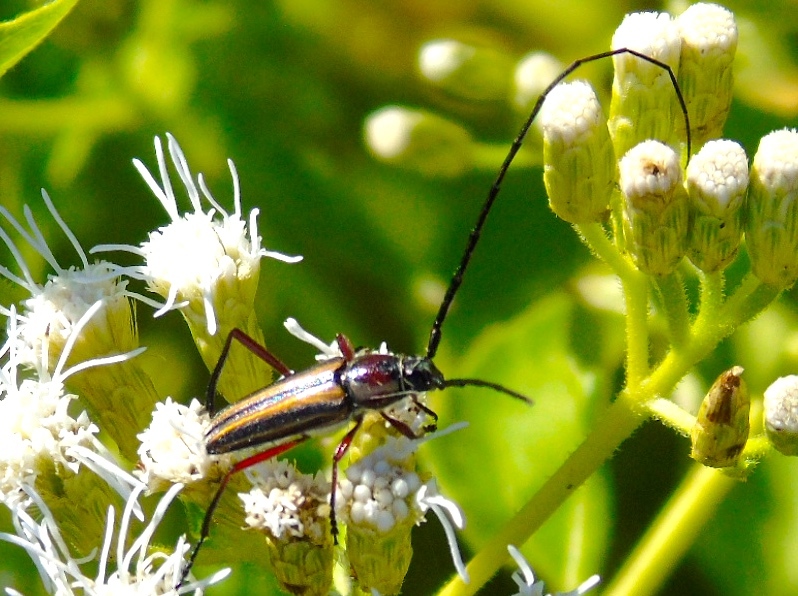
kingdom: Animalia
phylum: Arthropoda
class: Insecta
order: Coleoptera
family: Cerambycidae
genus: Sphaenothecus
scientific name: Sphaenothecus bilineatus
